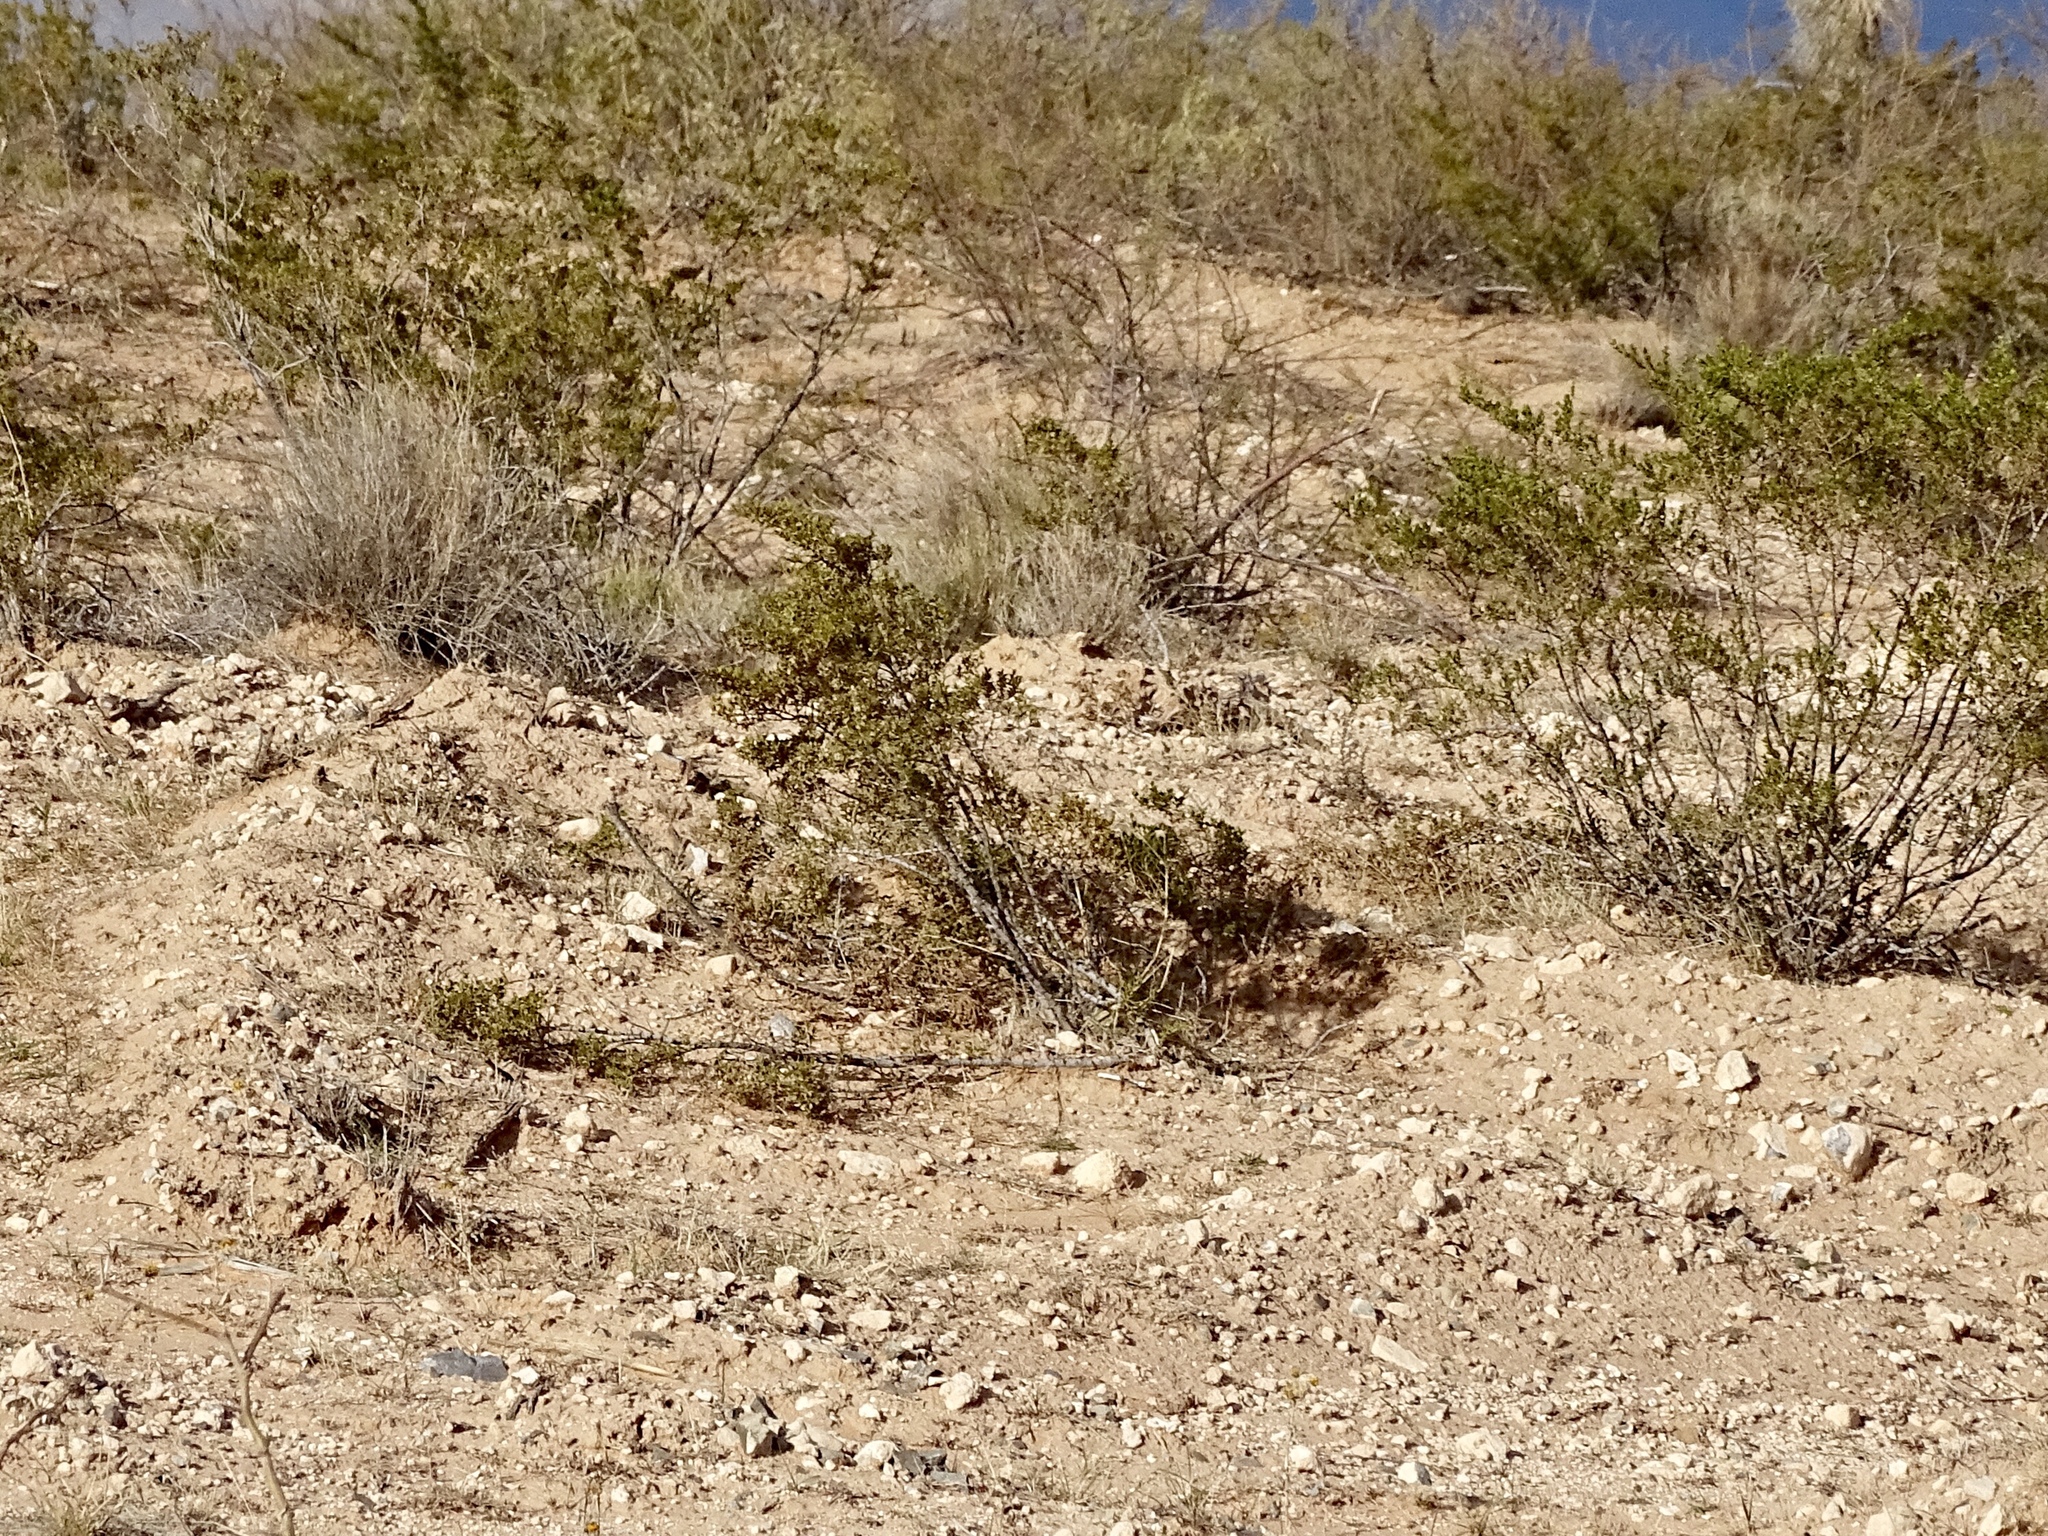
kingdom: Plantae
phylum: Tracheophyta
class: Magnoliopsida
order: Zygophyllales
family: Zygophyllaceae
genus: Larrea
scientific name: Larrea tridentata
